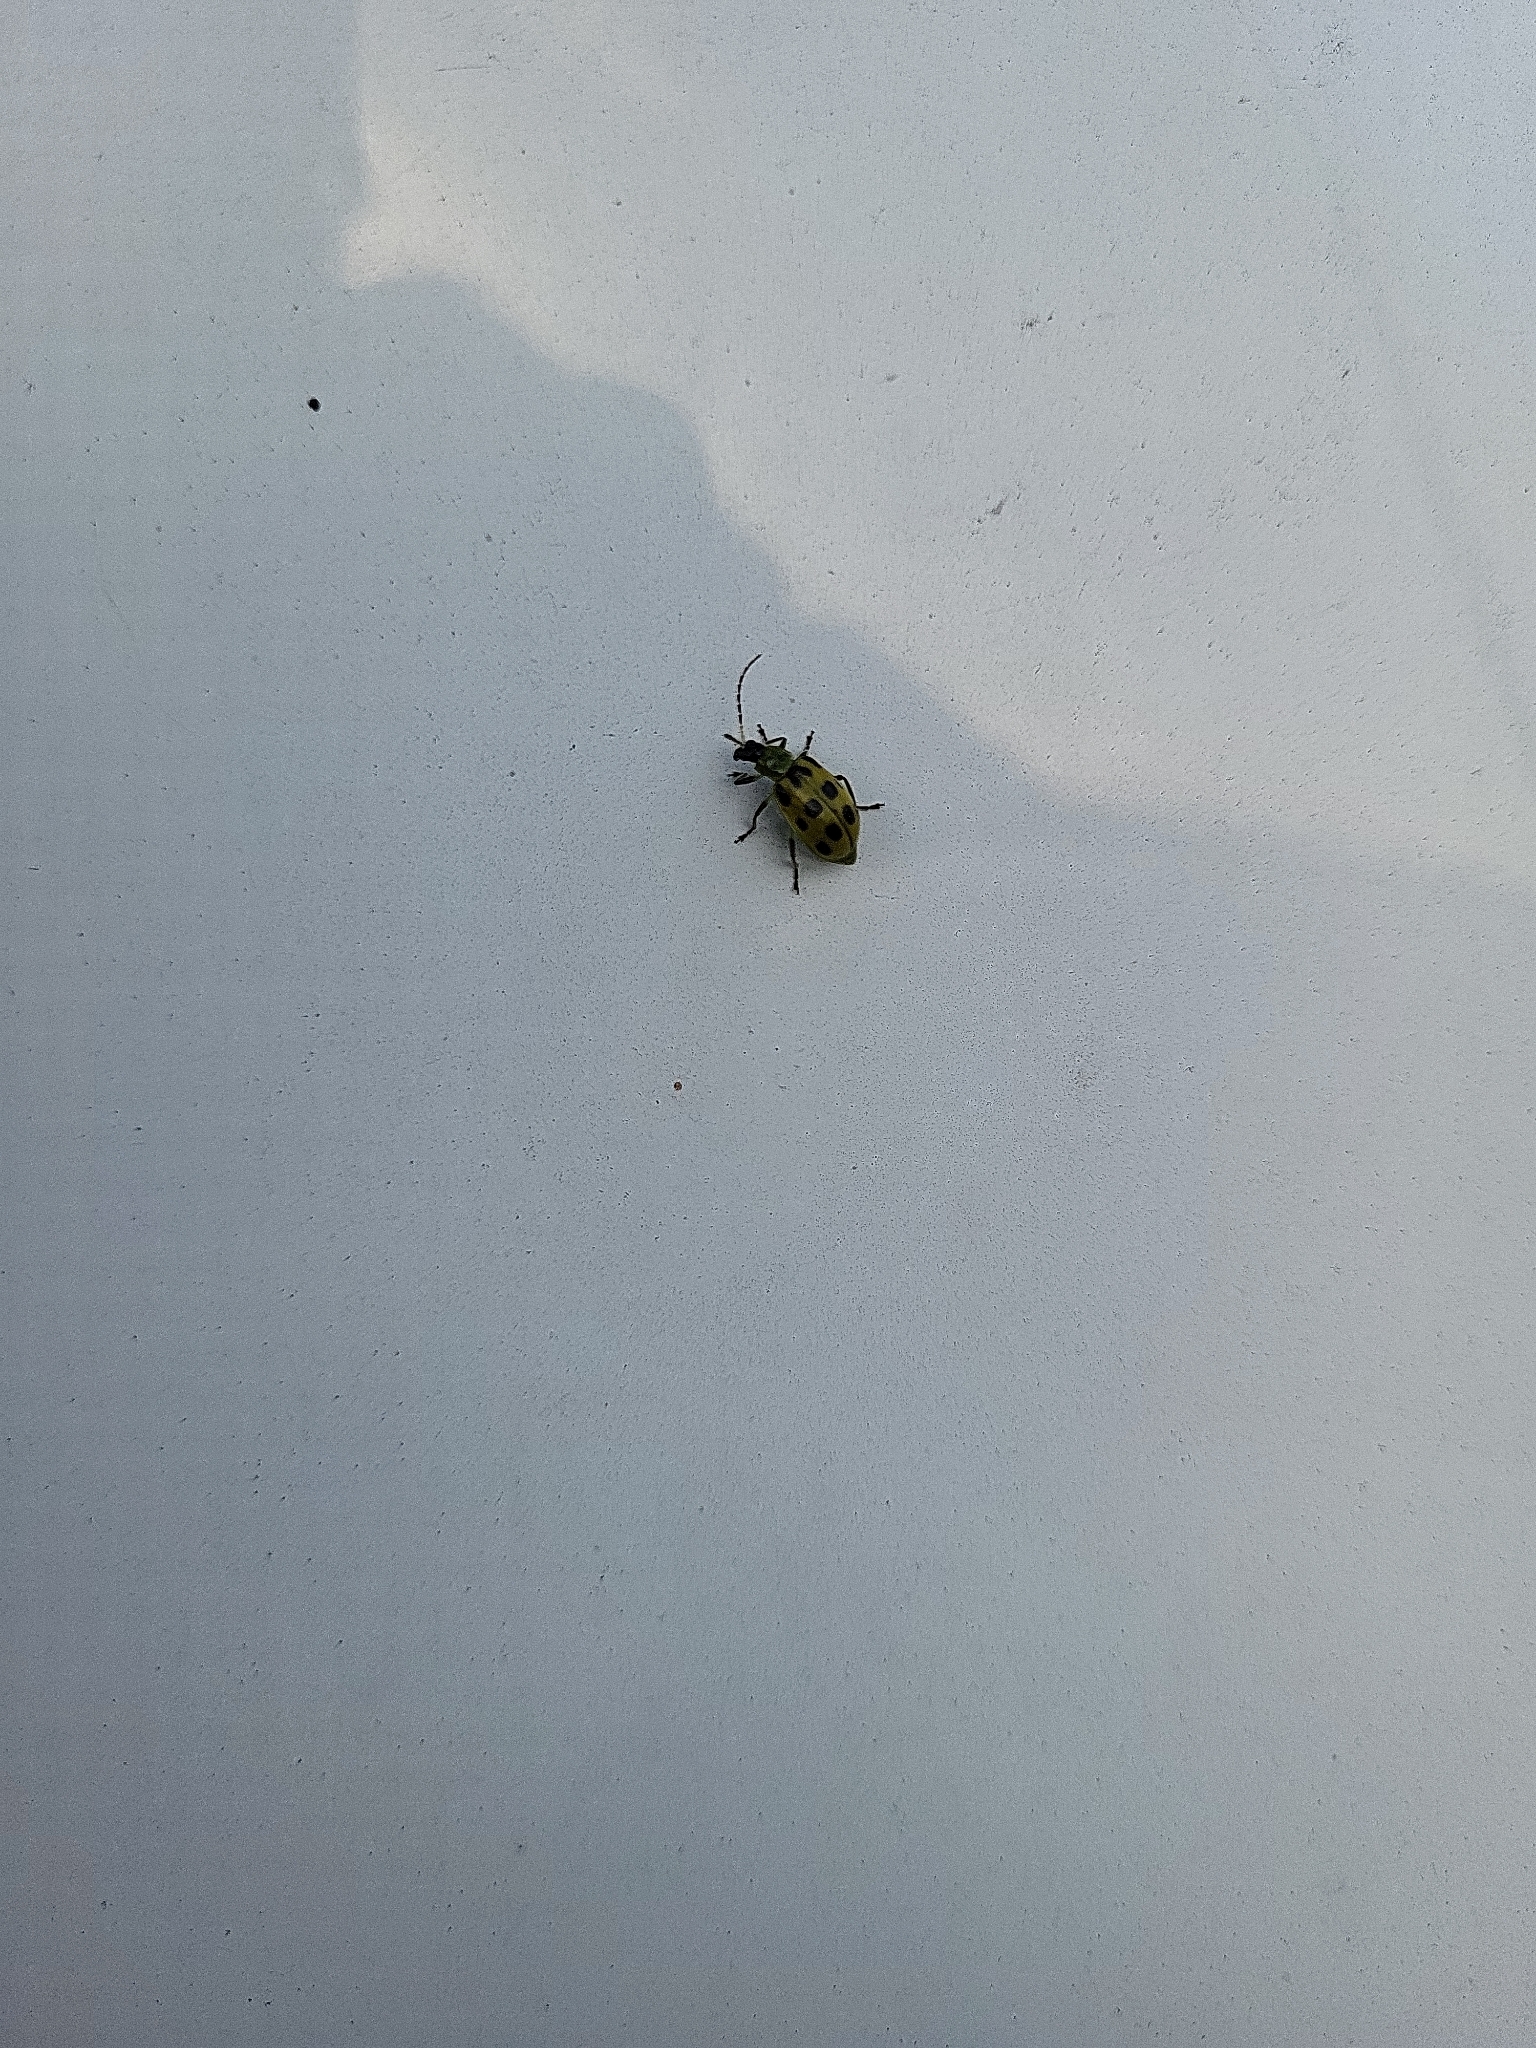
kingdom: Animalia
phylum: Arthropoda
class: Insecta
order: Coleoptera
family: Chrysomelidae
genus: Diabrotica
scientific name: Diabrotica undecimpunctata
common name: Spotted cucumber beetle
